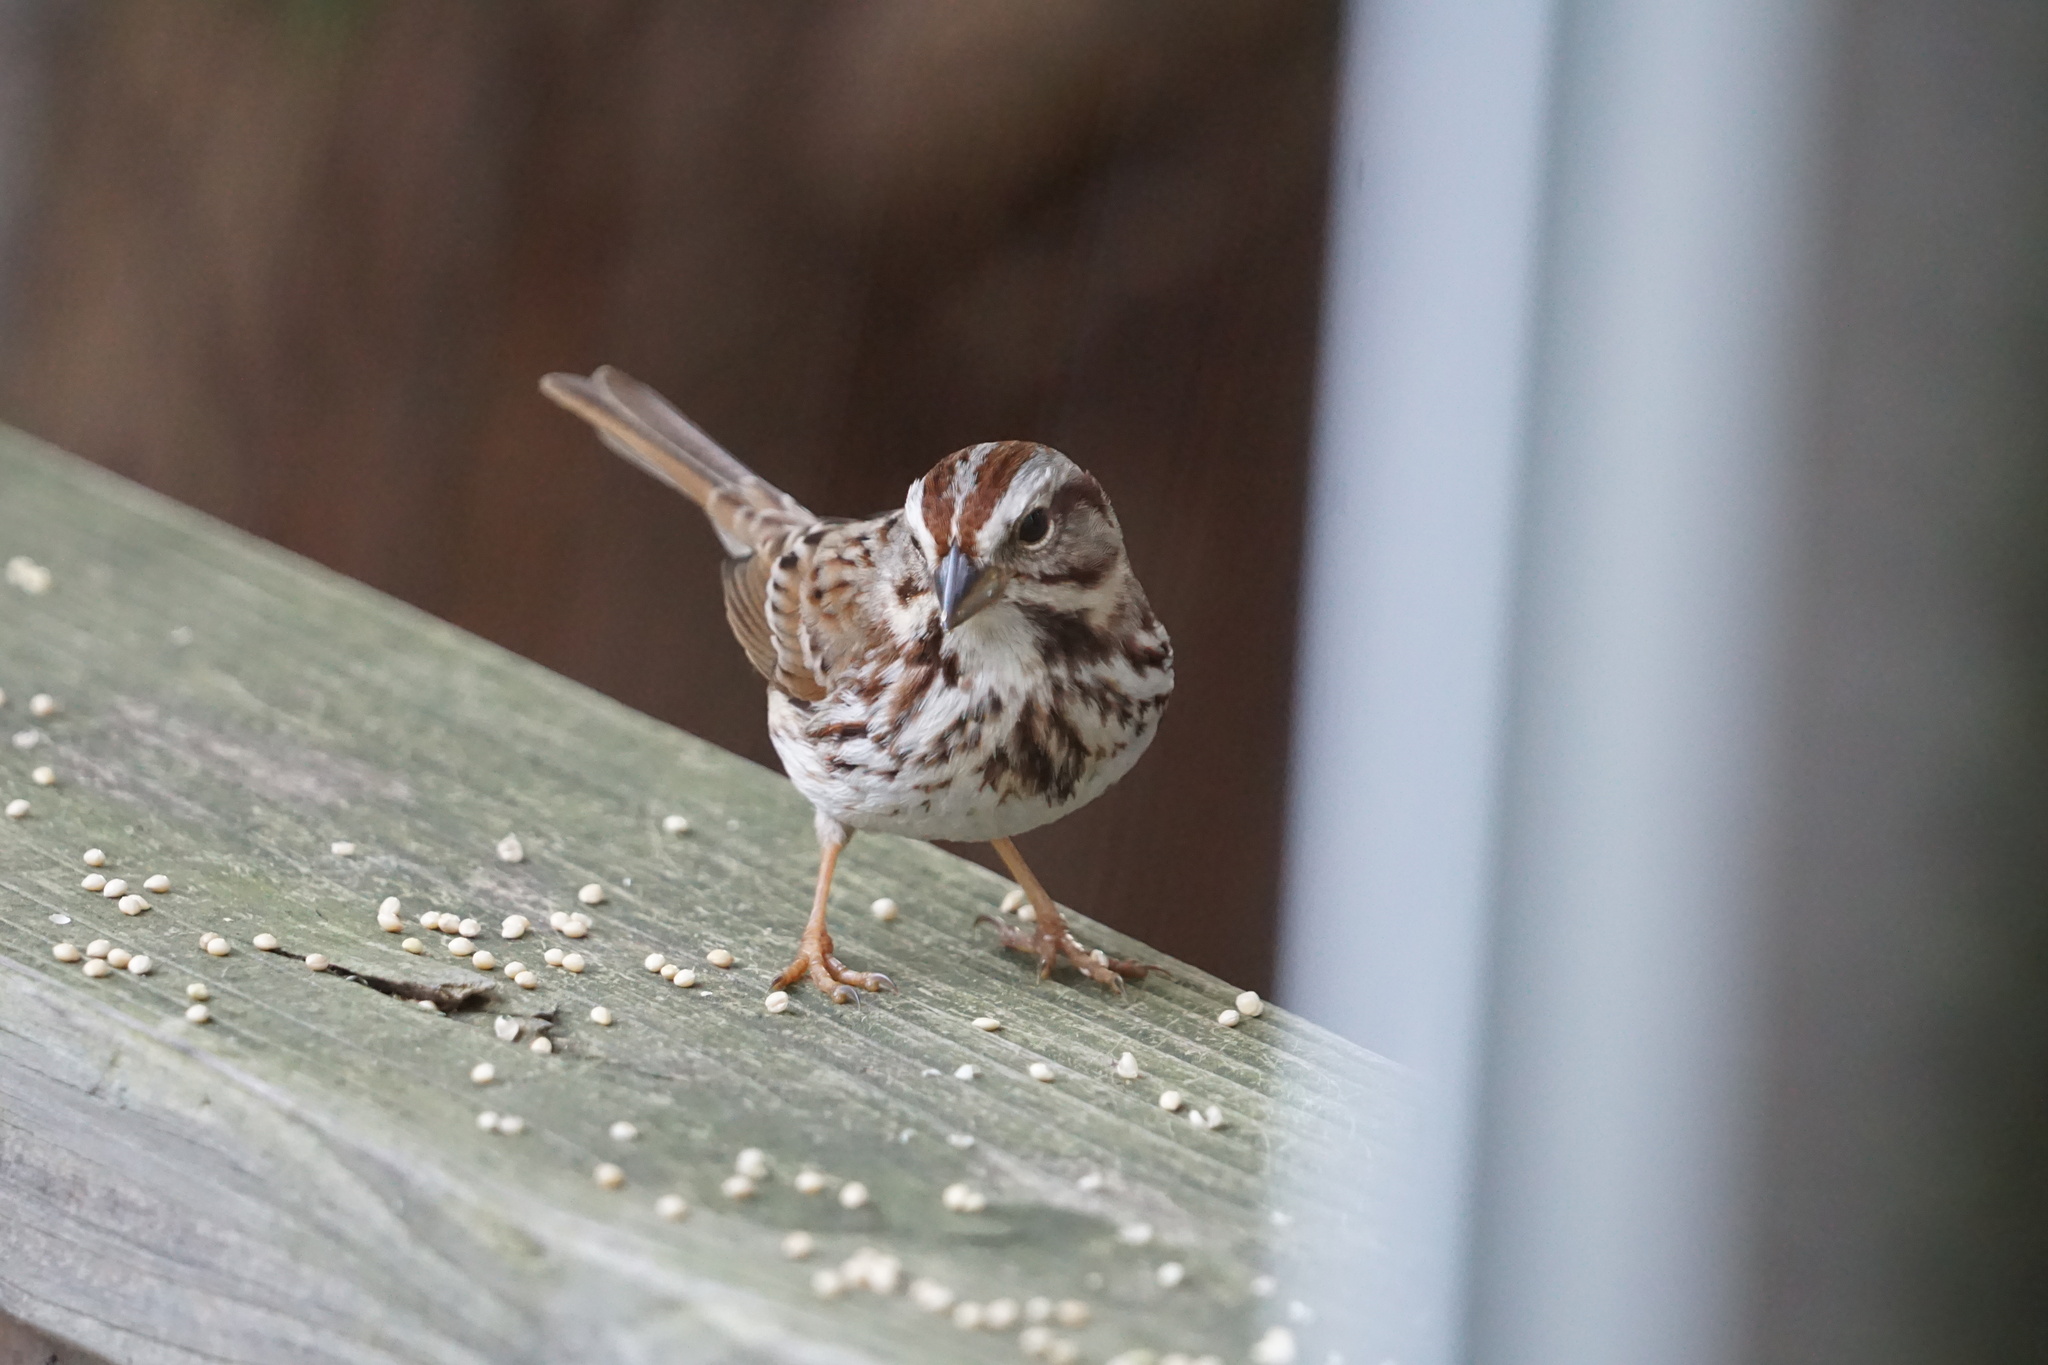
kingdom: Animalia
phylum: Chordata
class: Aves
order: Passeriformes
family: Passerellidae
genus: Melospiza
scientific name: Melospiza melodia
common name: Song sparrow
